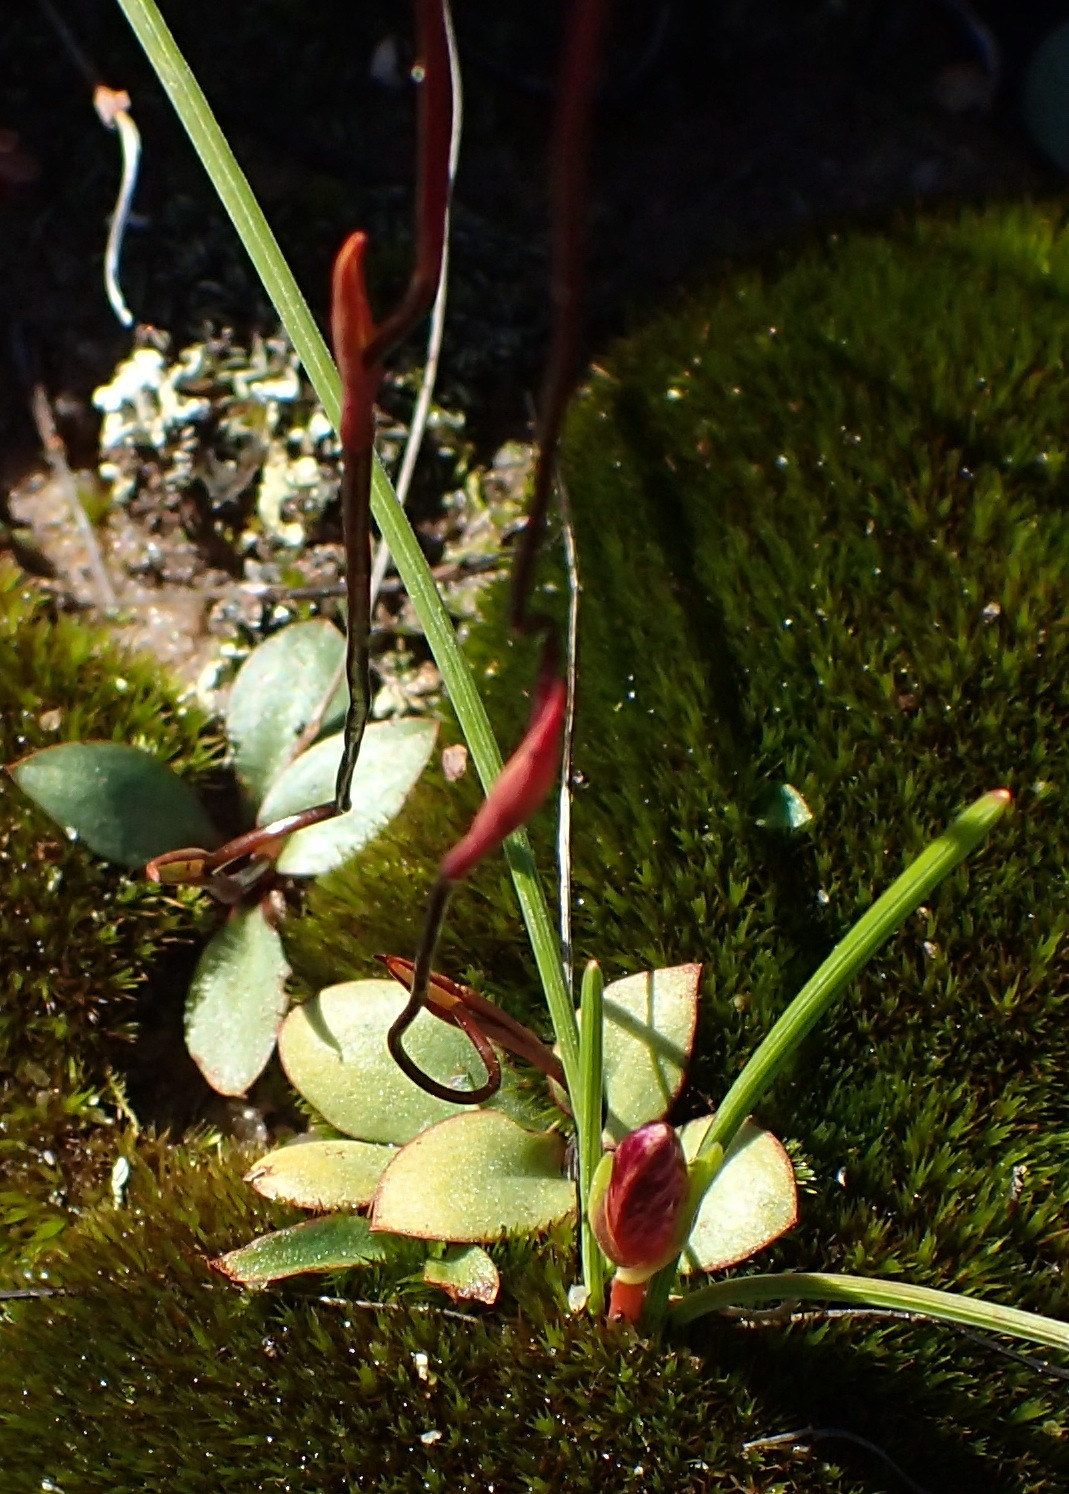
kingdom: Plantae
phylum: Tracheophyta
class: Liliopsida
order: Asparagales
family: Orchidaceae
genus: Disa
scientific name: Disa biflora
